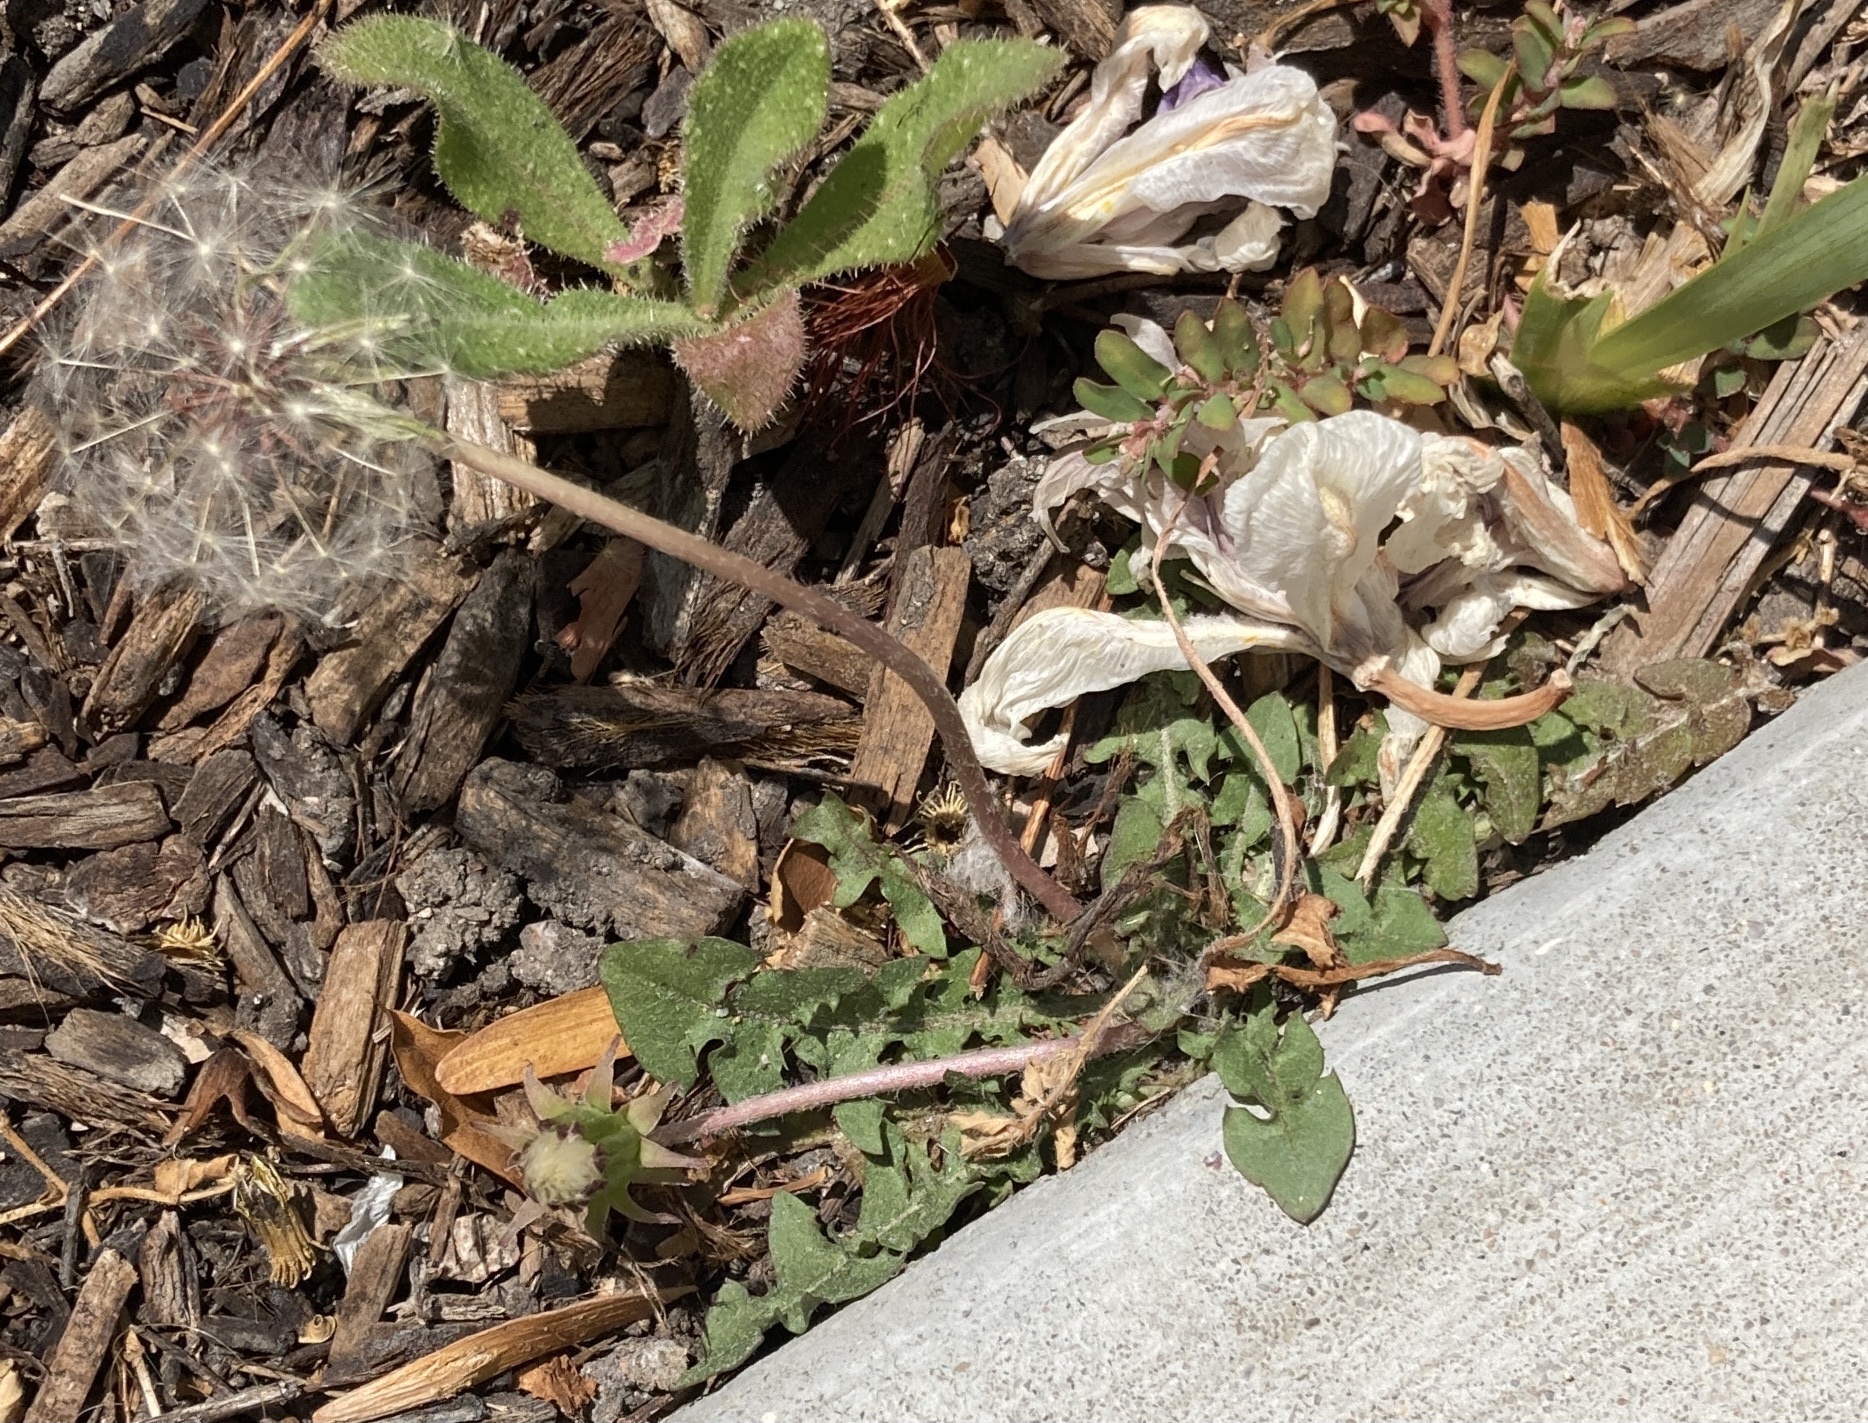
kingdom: Plantae
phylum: Tracheophyta
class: Magnoliopsida
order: Asterales
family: Asteraceae
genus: Taraxacum
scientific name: Taraxacum erythrospermum
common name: Rock dandelion
